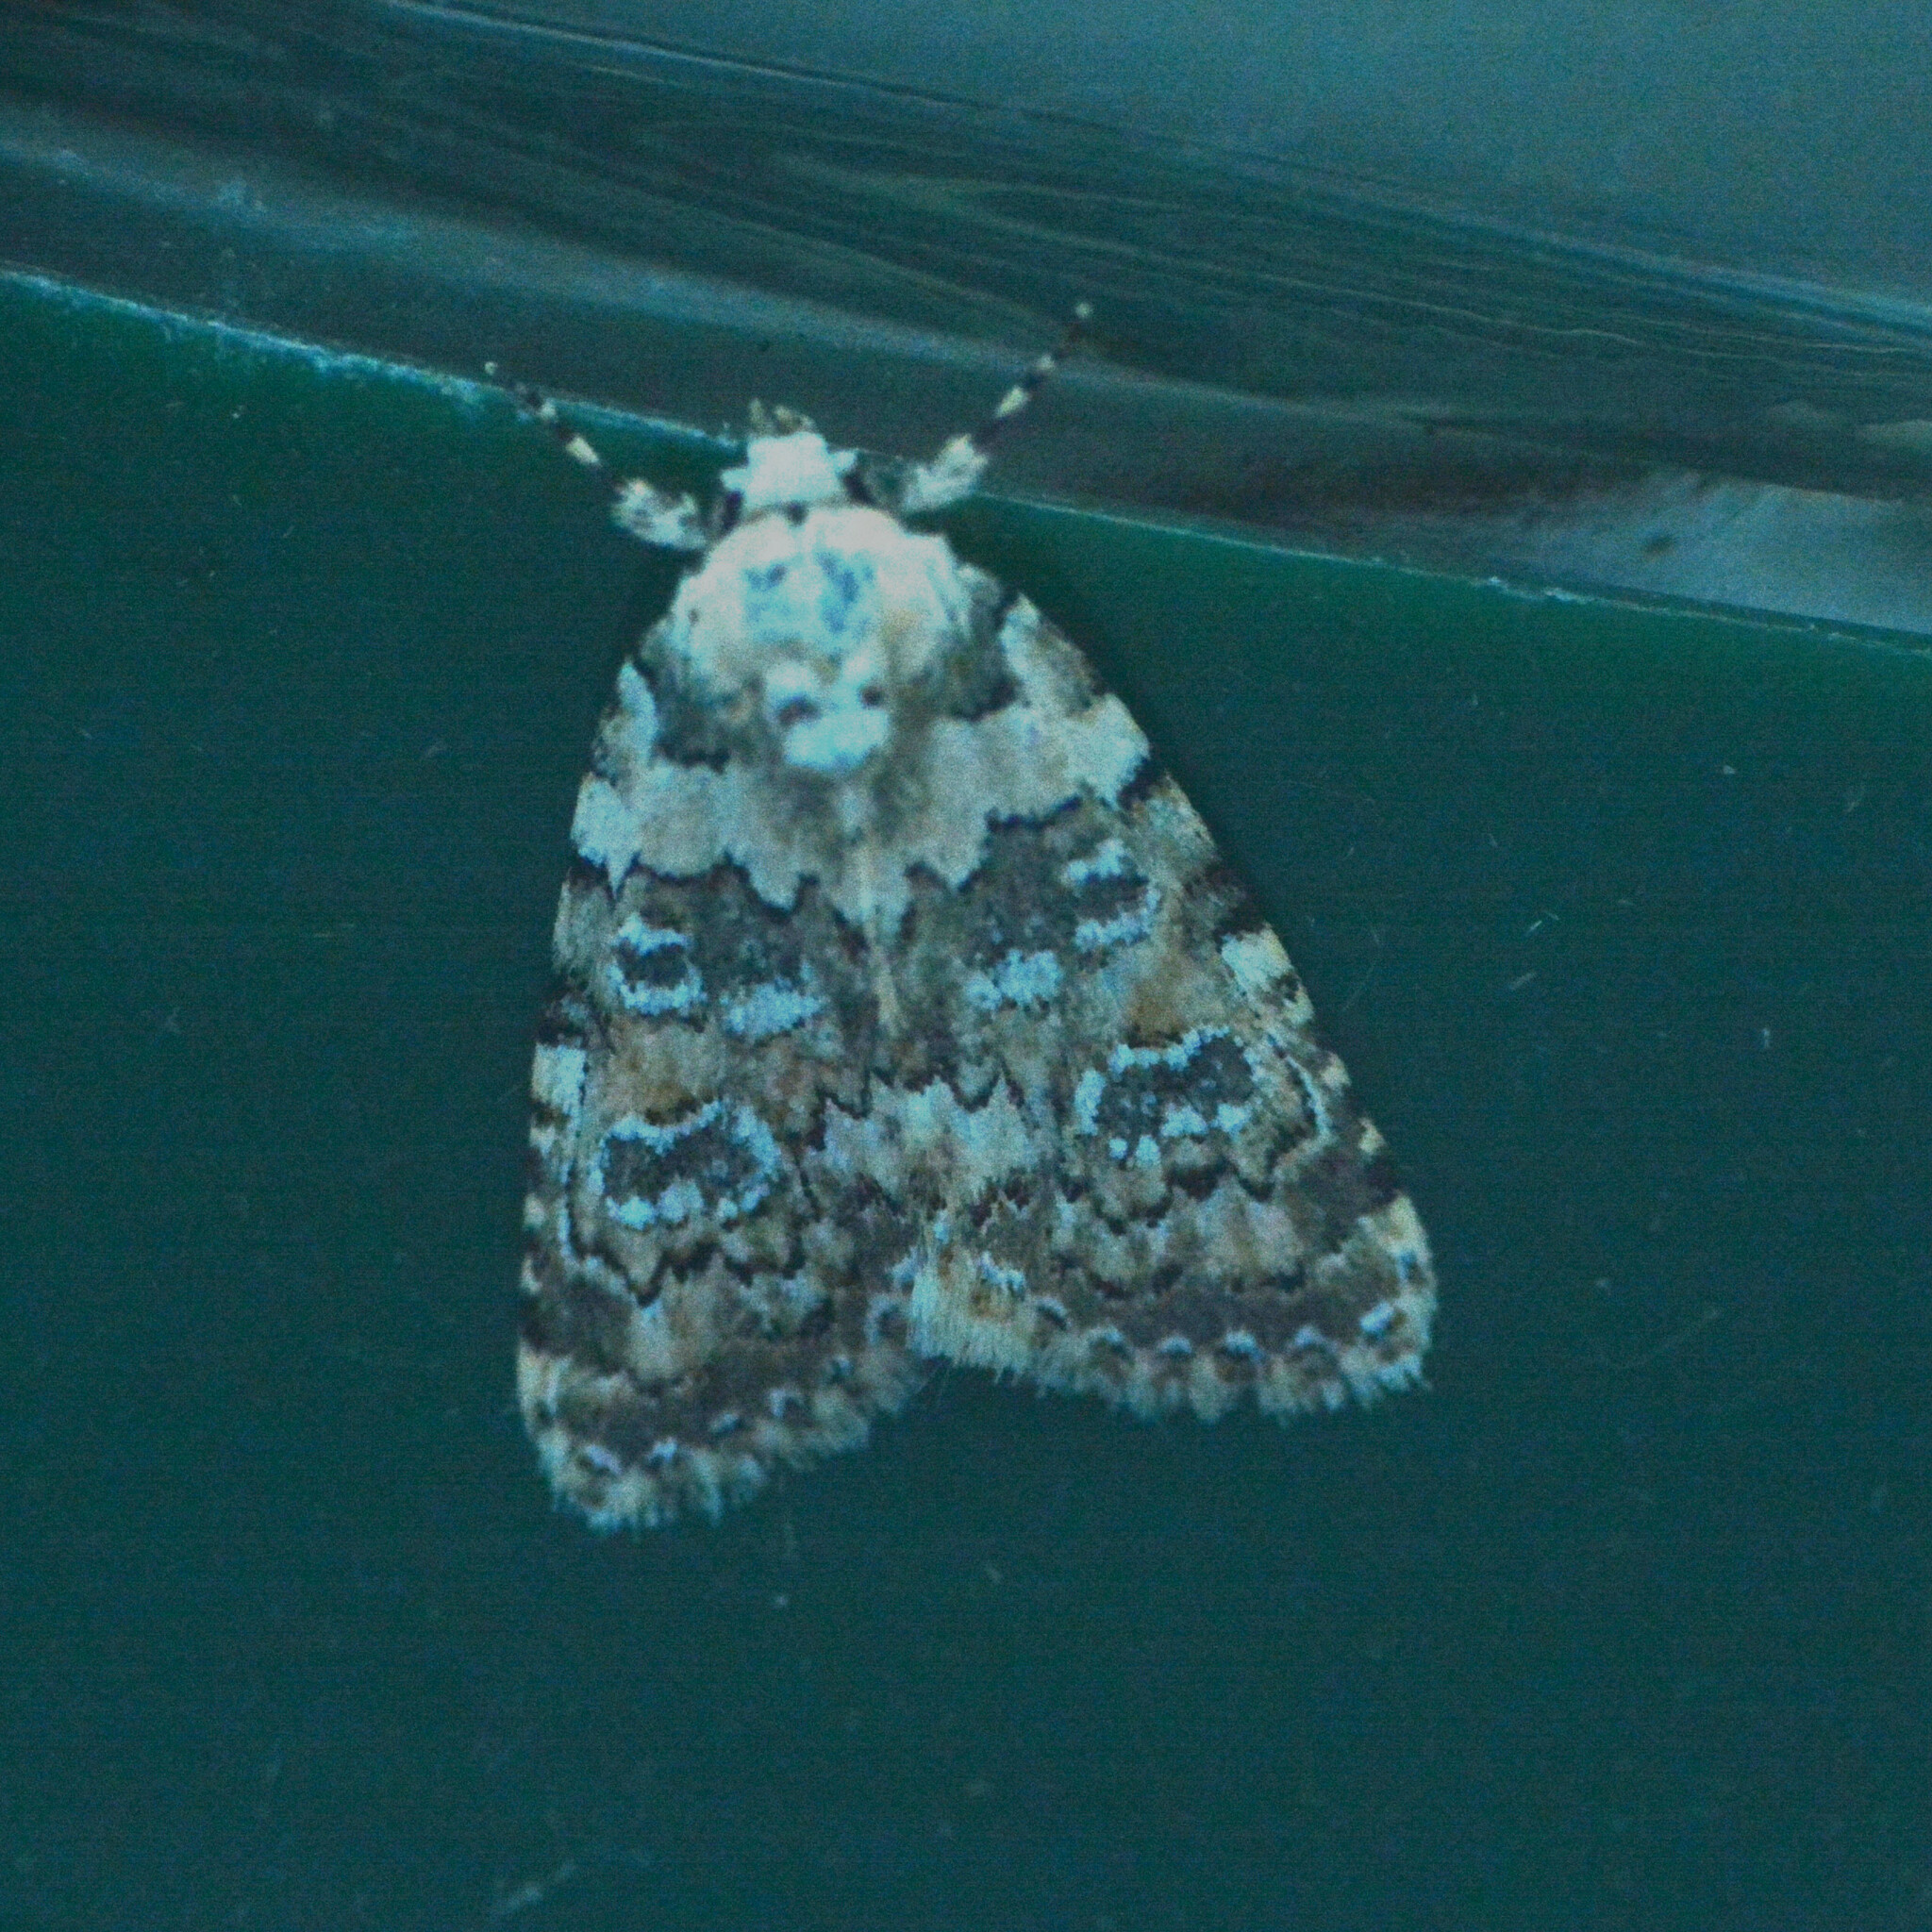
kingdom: Animalia
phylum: Arthropoda
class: Insecta
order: Lepidoptera
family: Noctuidae
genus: Bryophila
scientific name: Bryophila domestica
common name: Marbled beauty
